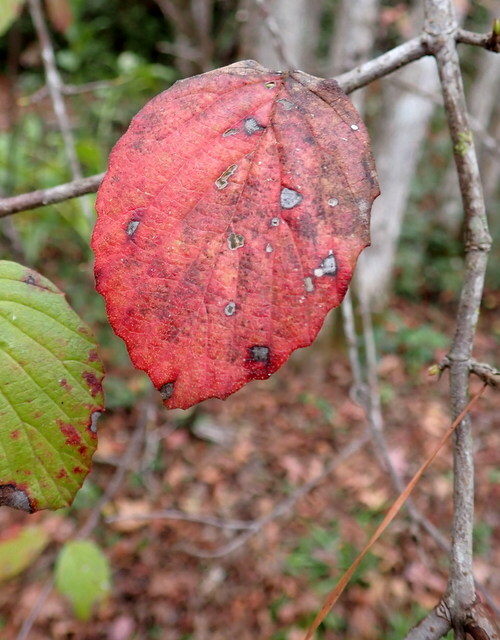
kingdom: Plantae
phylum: Tracheophyta
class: Magnoliopsida
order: Dipsacales
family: Viburnaceae
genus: Viburnum
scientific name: Viburnum scabrellum
